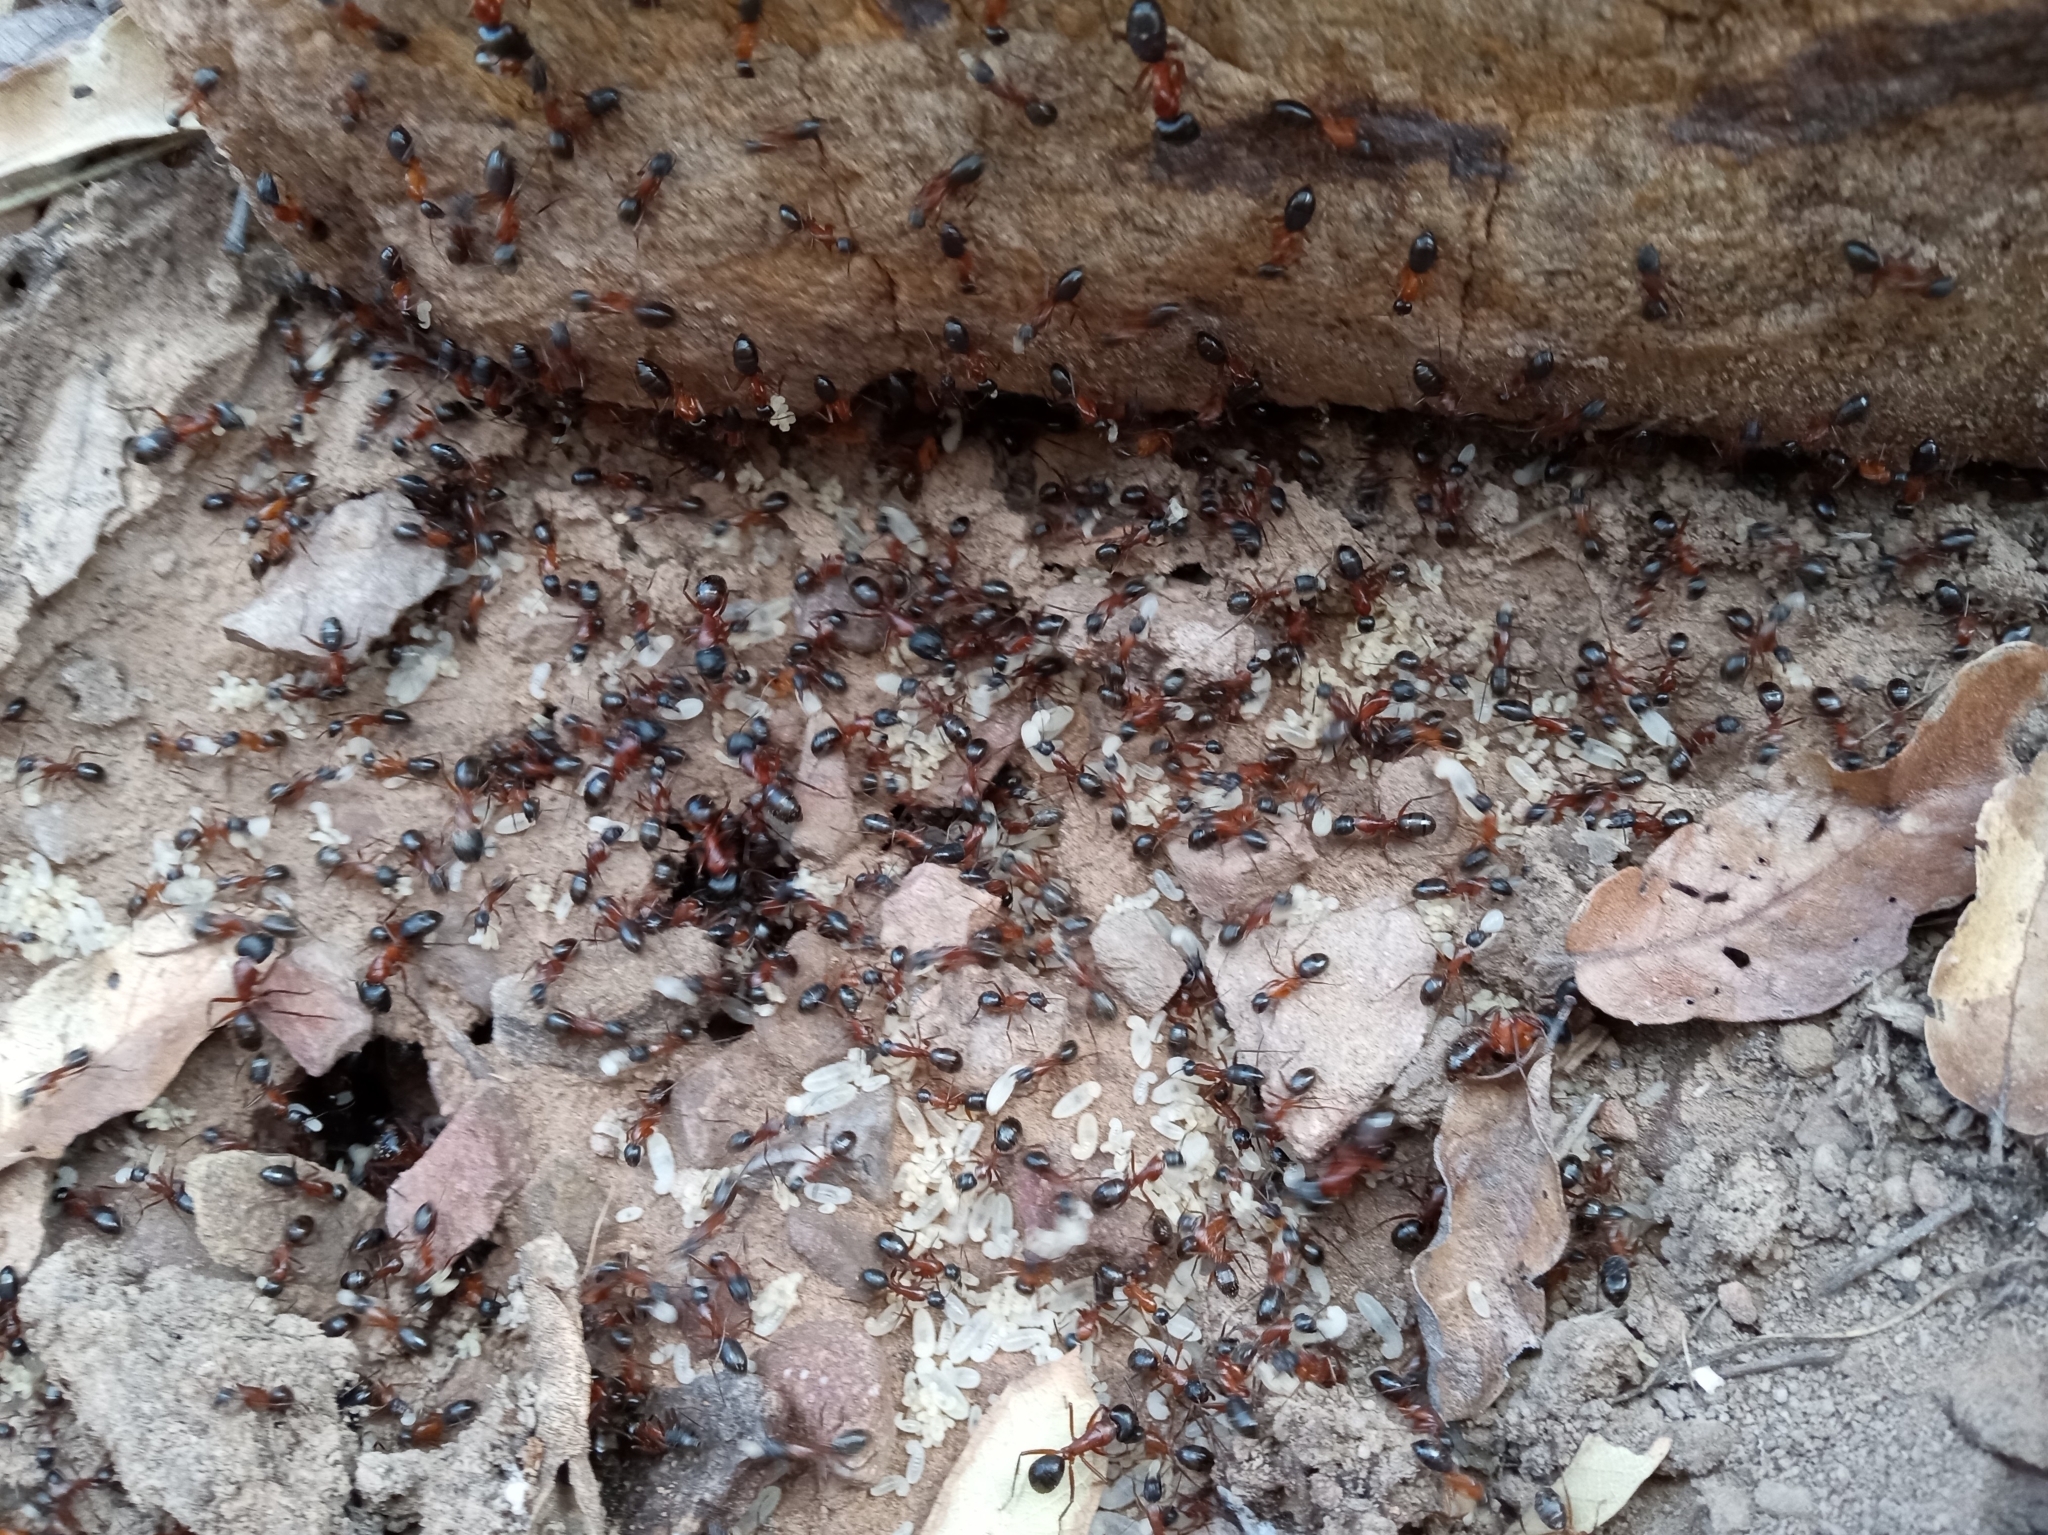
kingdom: Animalia
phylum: Arthropoda
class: Insecta
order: Hymenoptera
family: Formicidae
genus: Camponotus
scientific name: Camponotus semitestaceus
